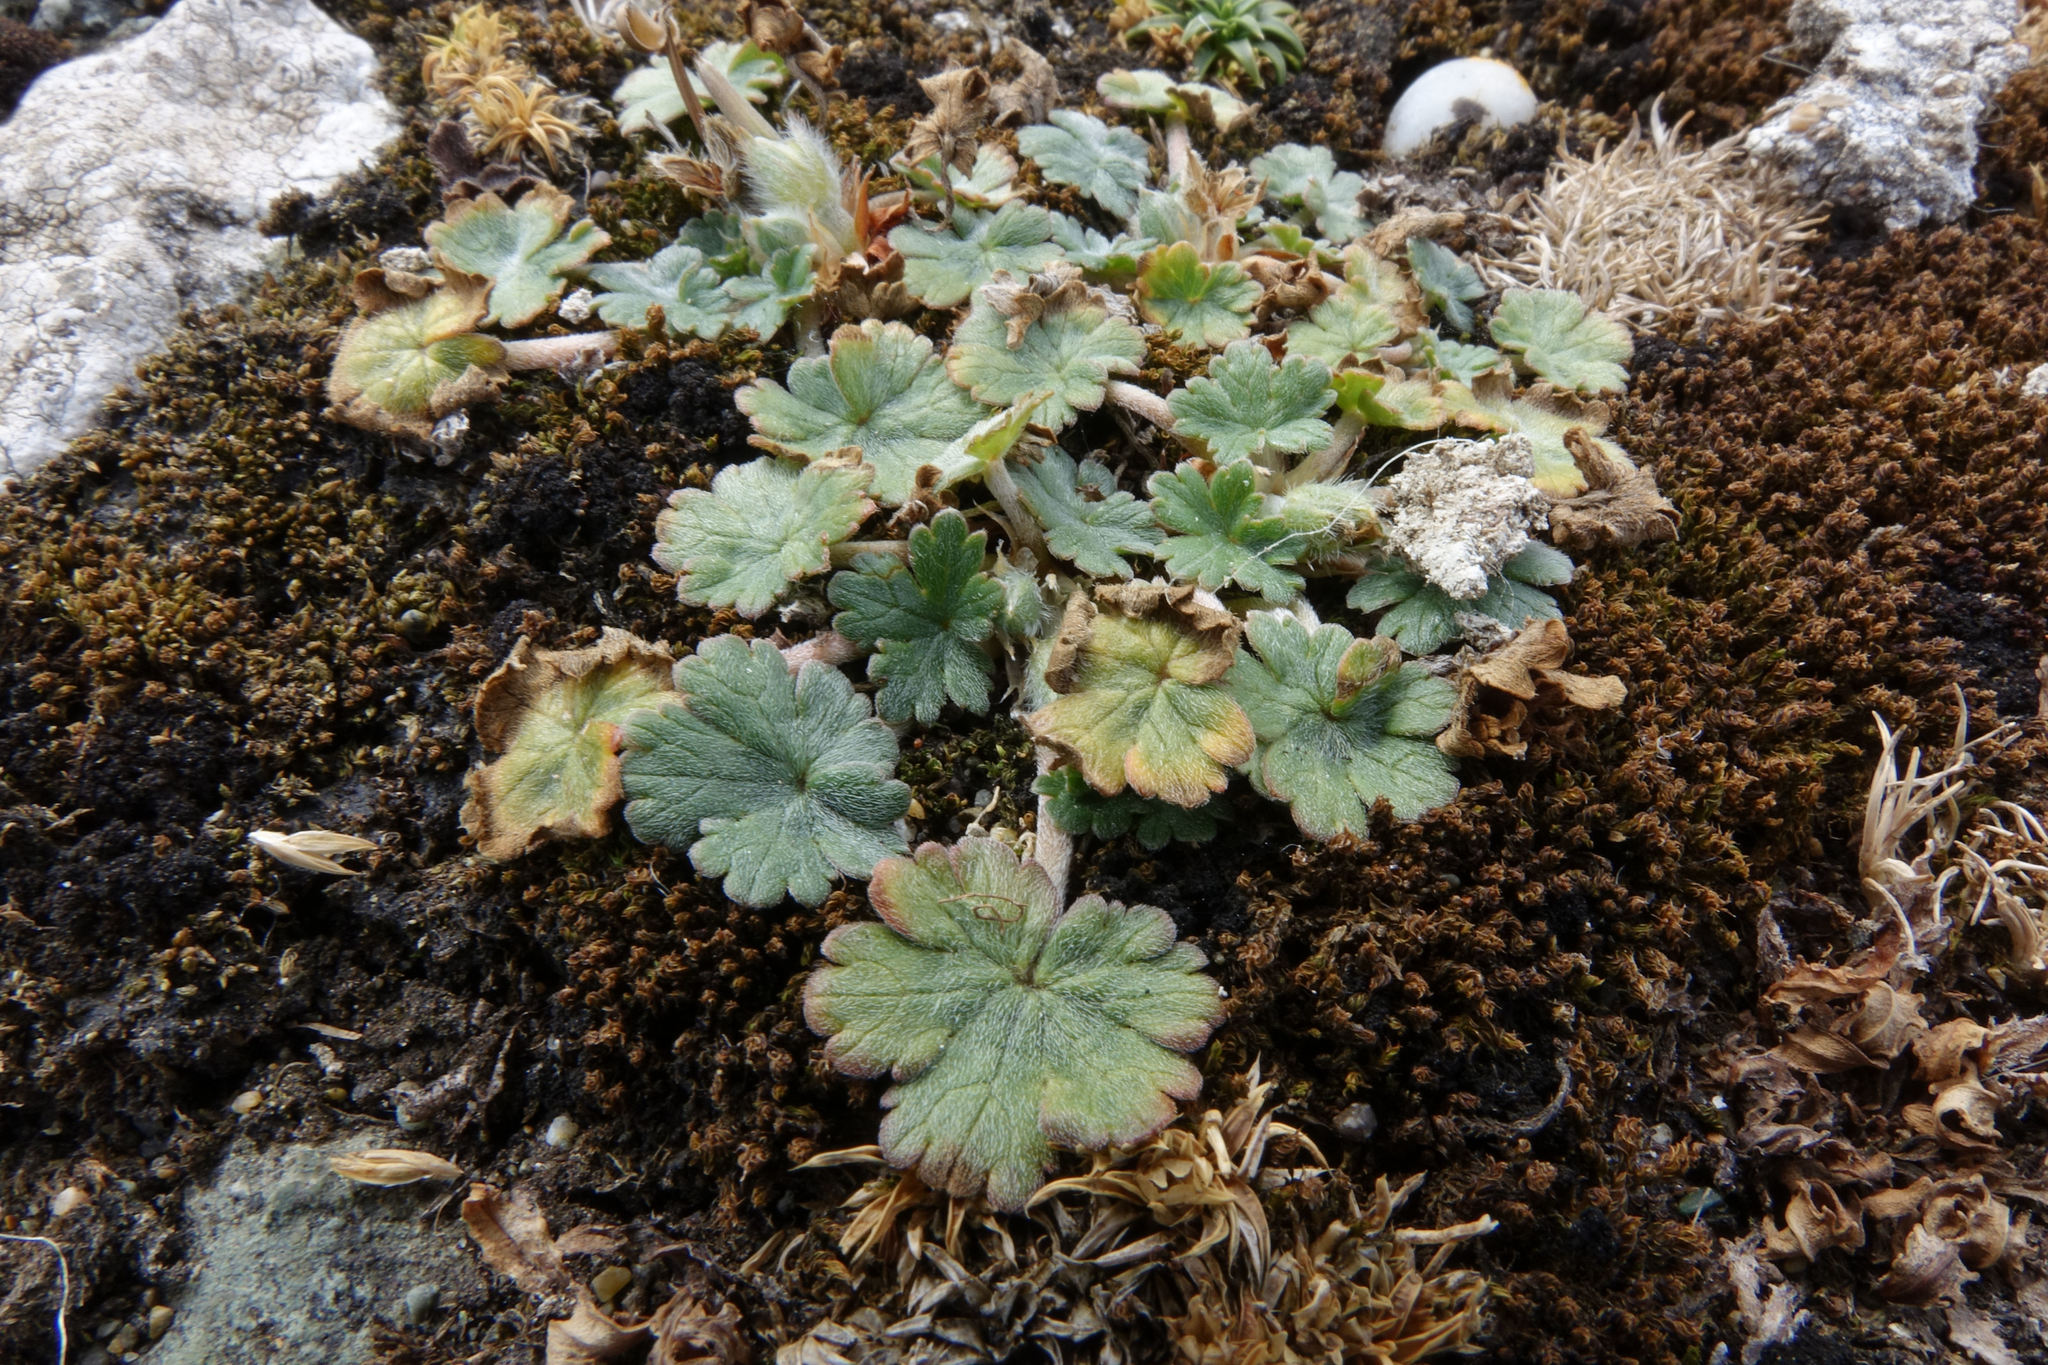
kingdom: Plantae
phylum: Tracheophyta
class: Magnoliopsida
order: Geraniales
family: Geraniaceae
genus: Geranium
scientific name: Geranium brevicaule
